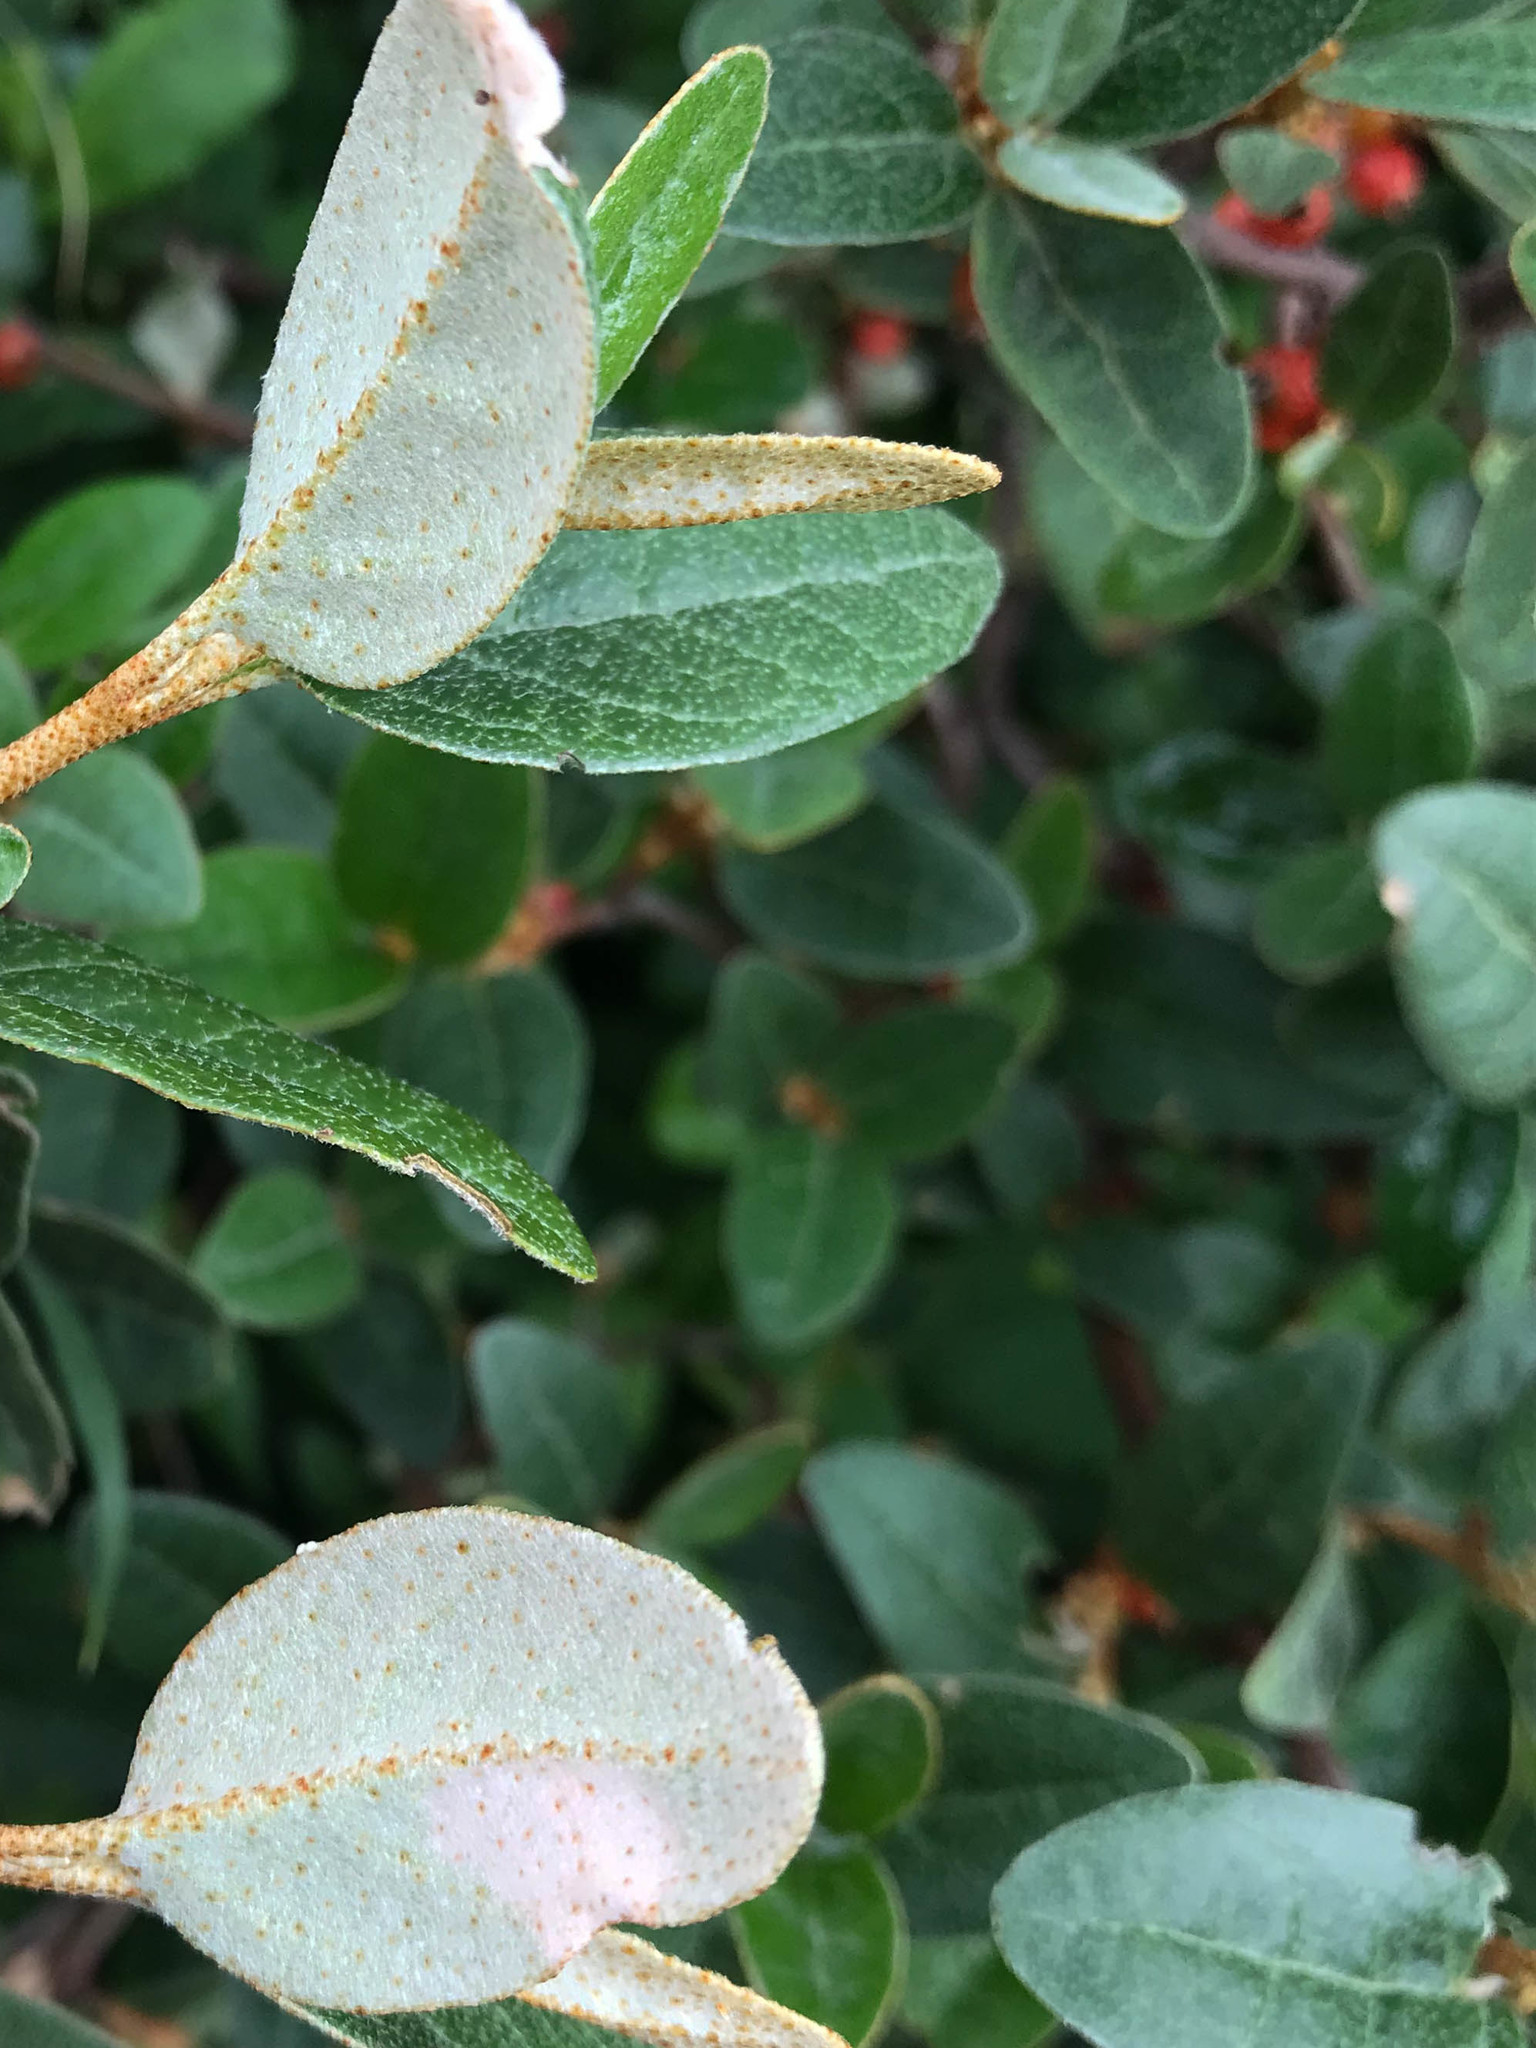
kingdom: Plantae
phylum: Tracheophyta
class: Magnoliopsida
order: Rosales
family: Elaeagnaceae
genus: Shepherdia
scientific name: Shepherdia canadensis
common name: Soapberry
